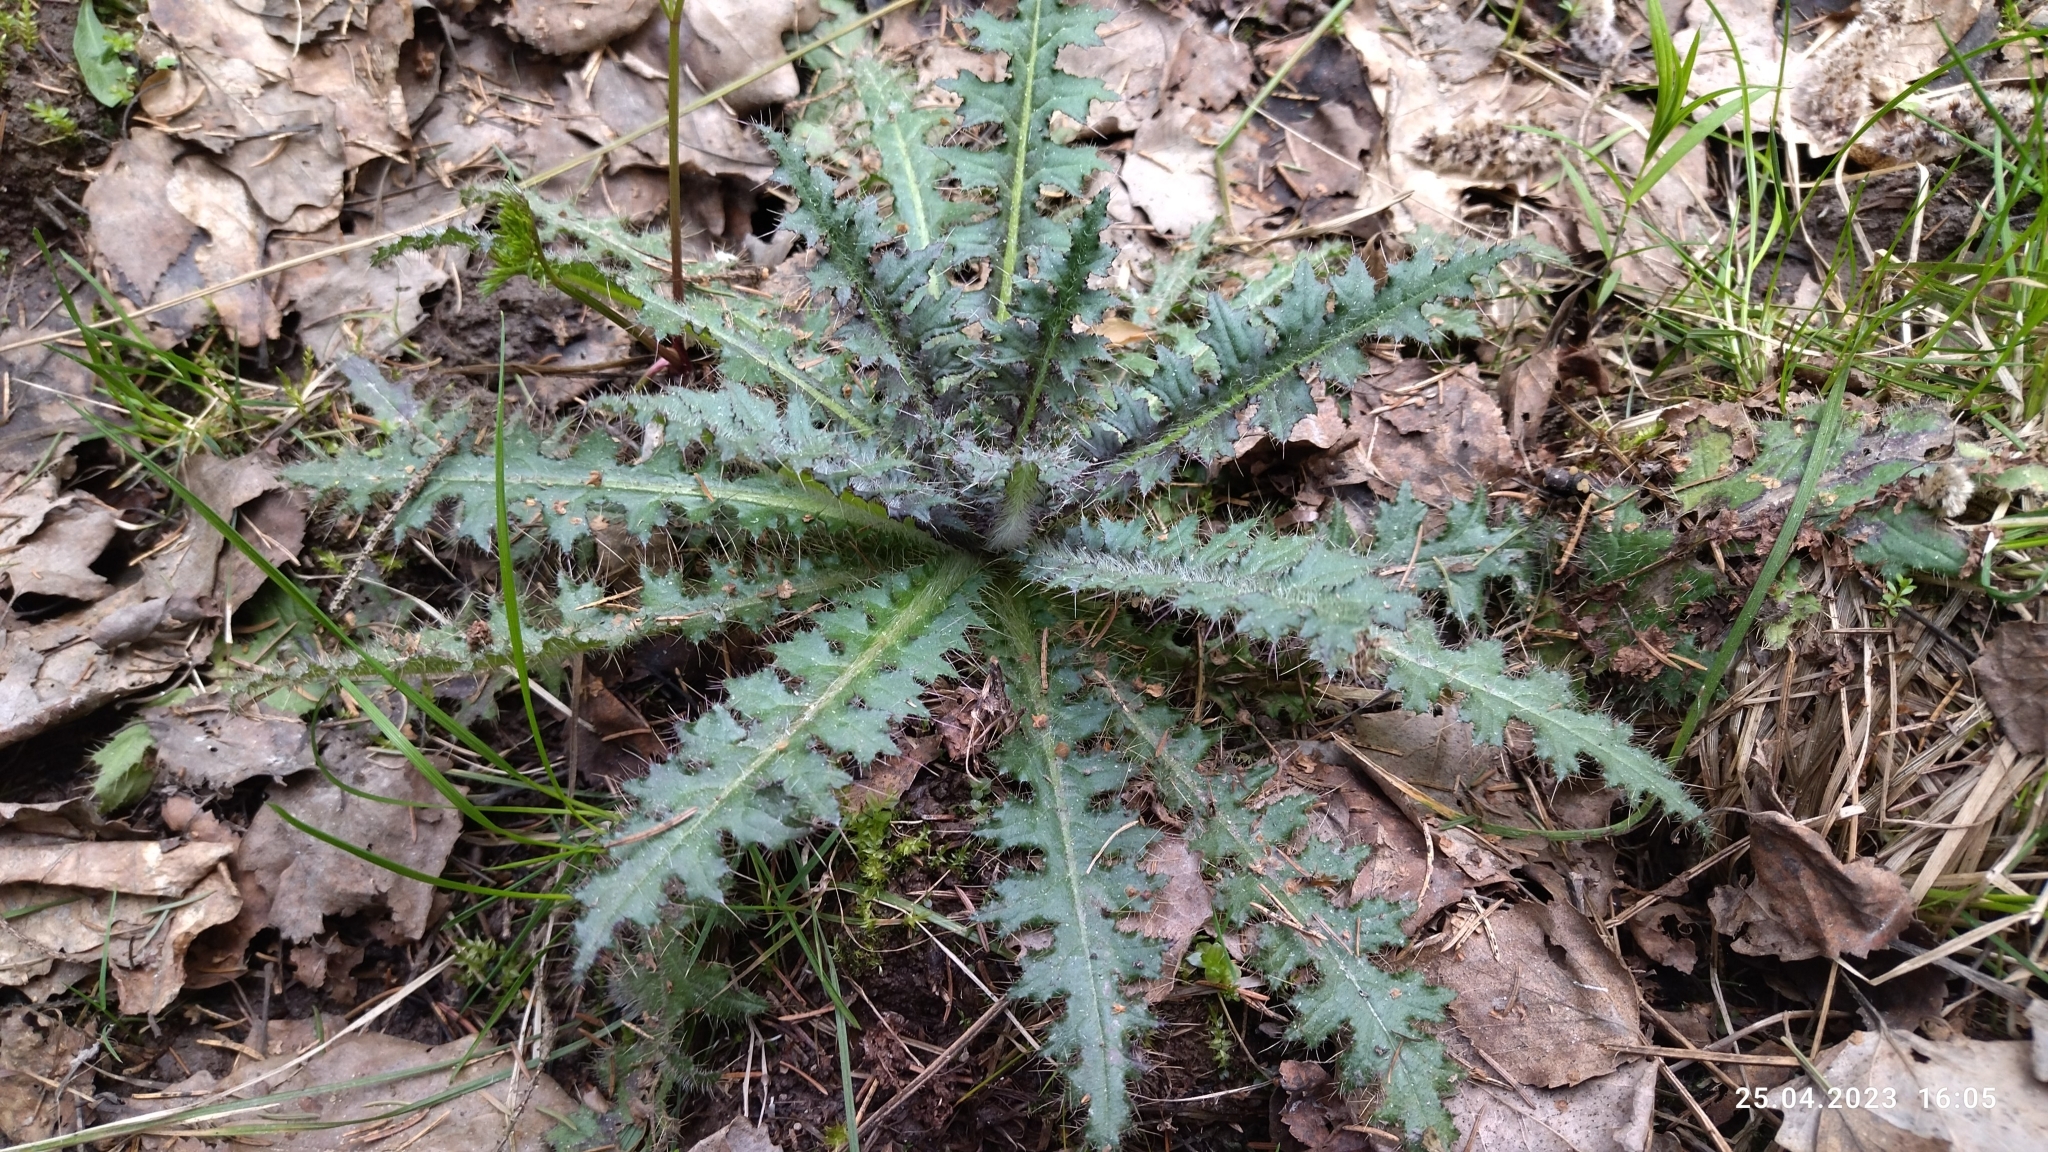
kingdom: Plantae
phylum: Tracheophyta
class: Magnoliopsida
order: Asterales
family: Asteraceae
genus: Cirsium
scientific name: Cirsium palustre
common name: Marsh thistle
